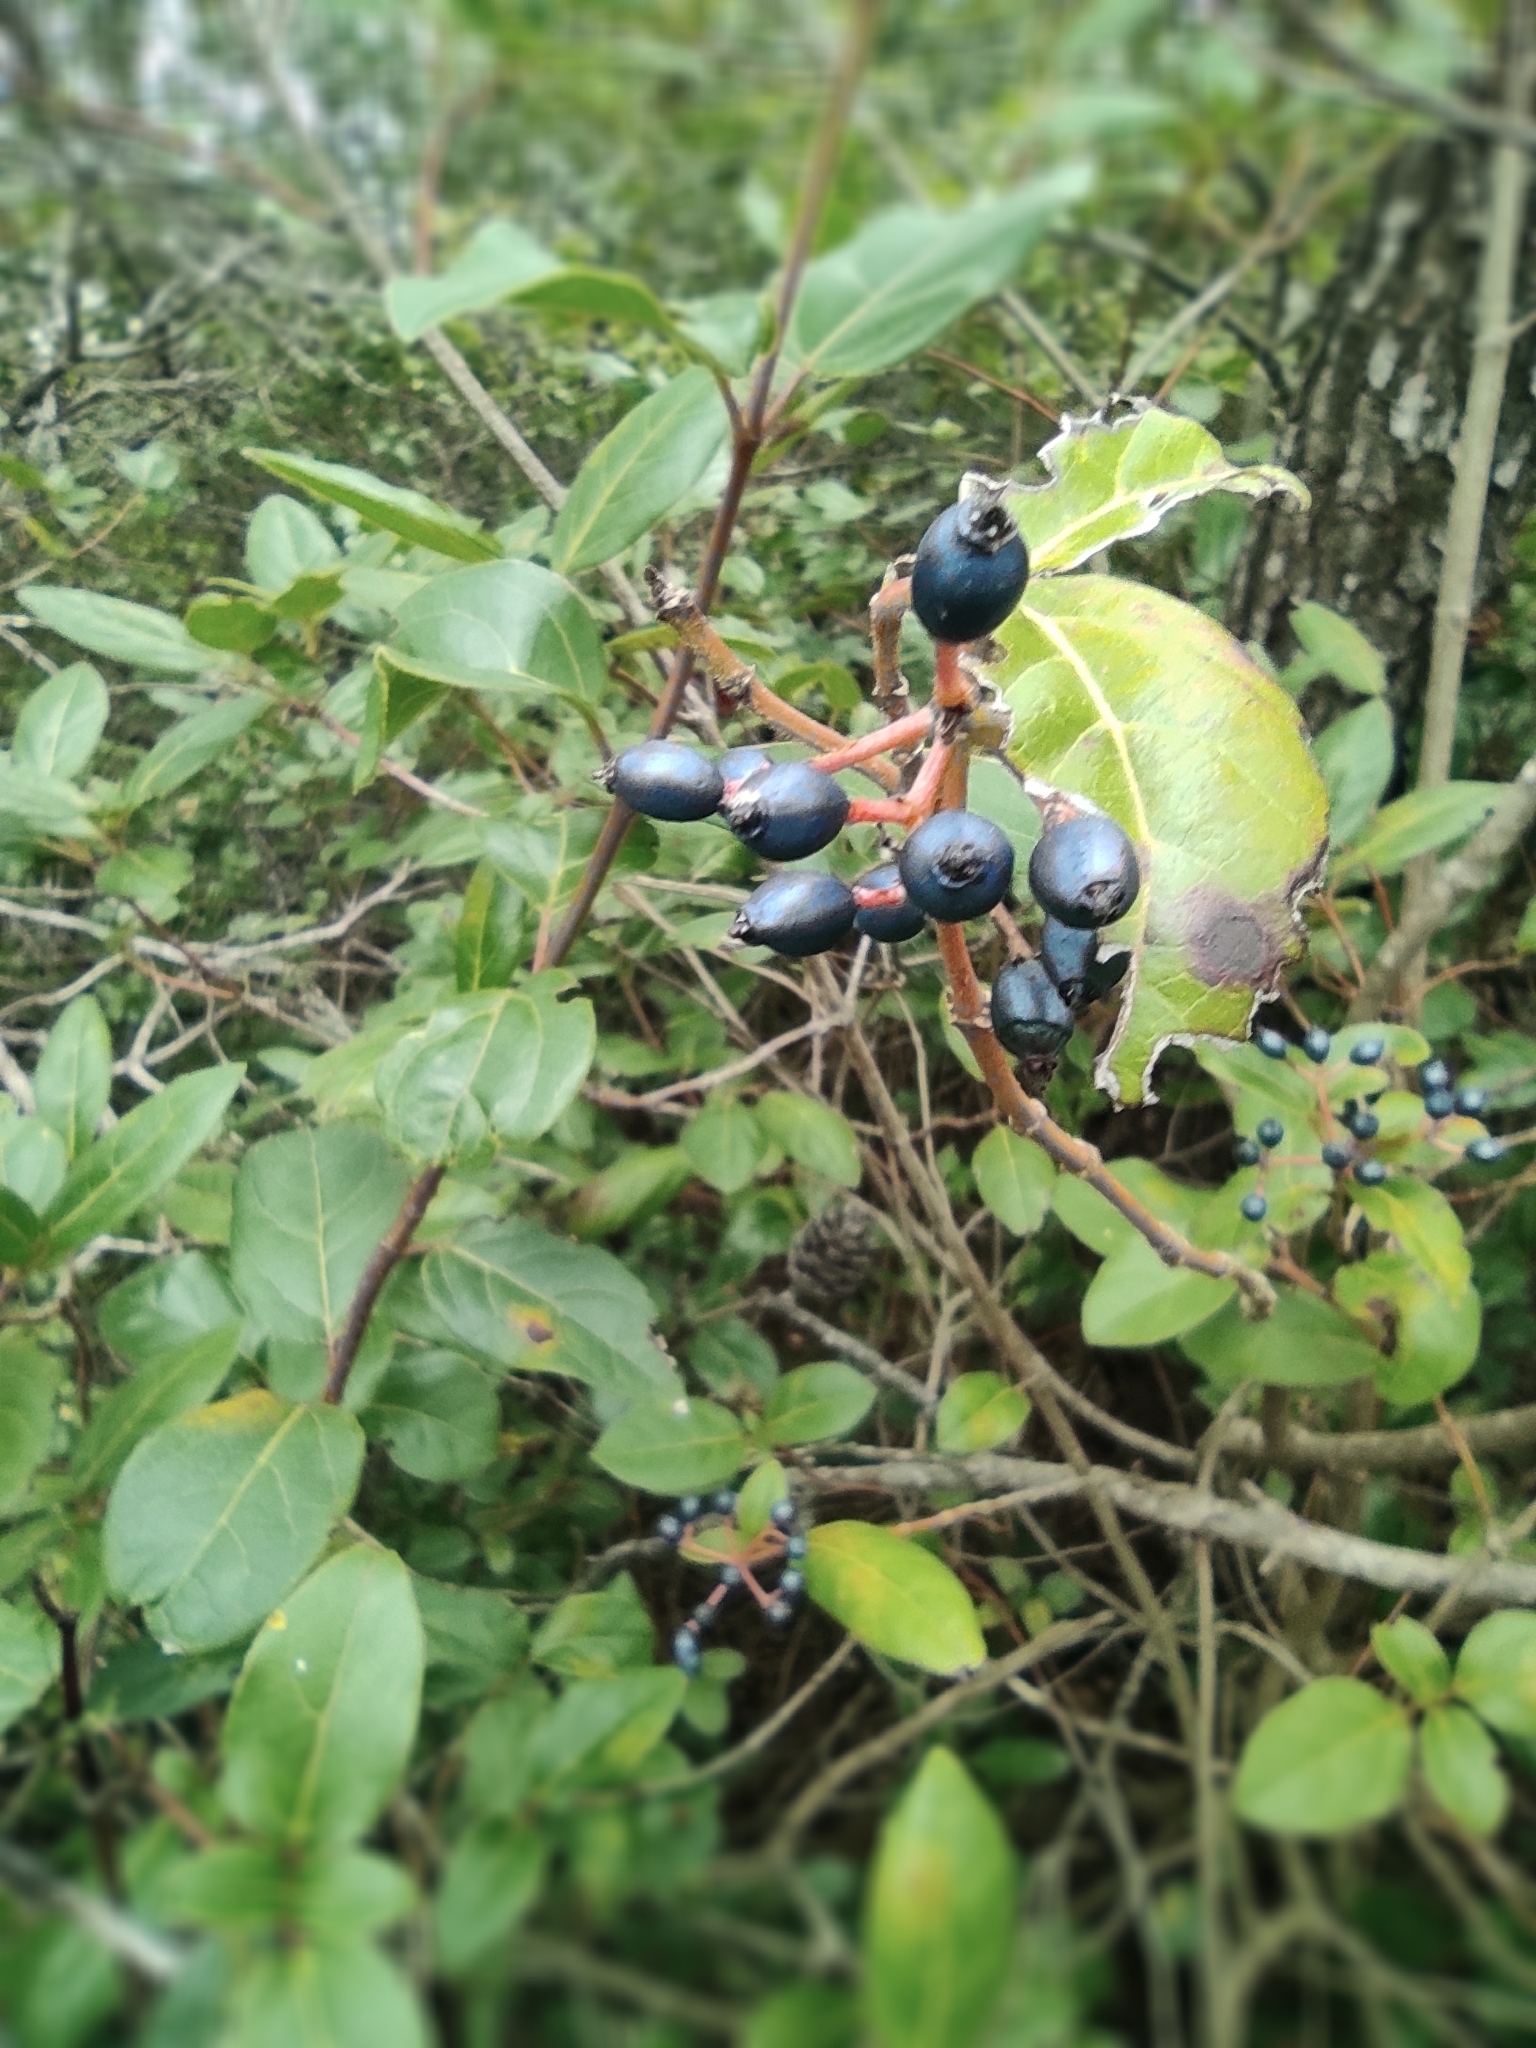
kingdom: Plantae
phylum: Tracheophyta
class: Magnoliopsida
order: Dipsacales
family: Viburnaceae
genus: Viburnum
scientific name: Viburnum tinus
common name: Laurustinus
